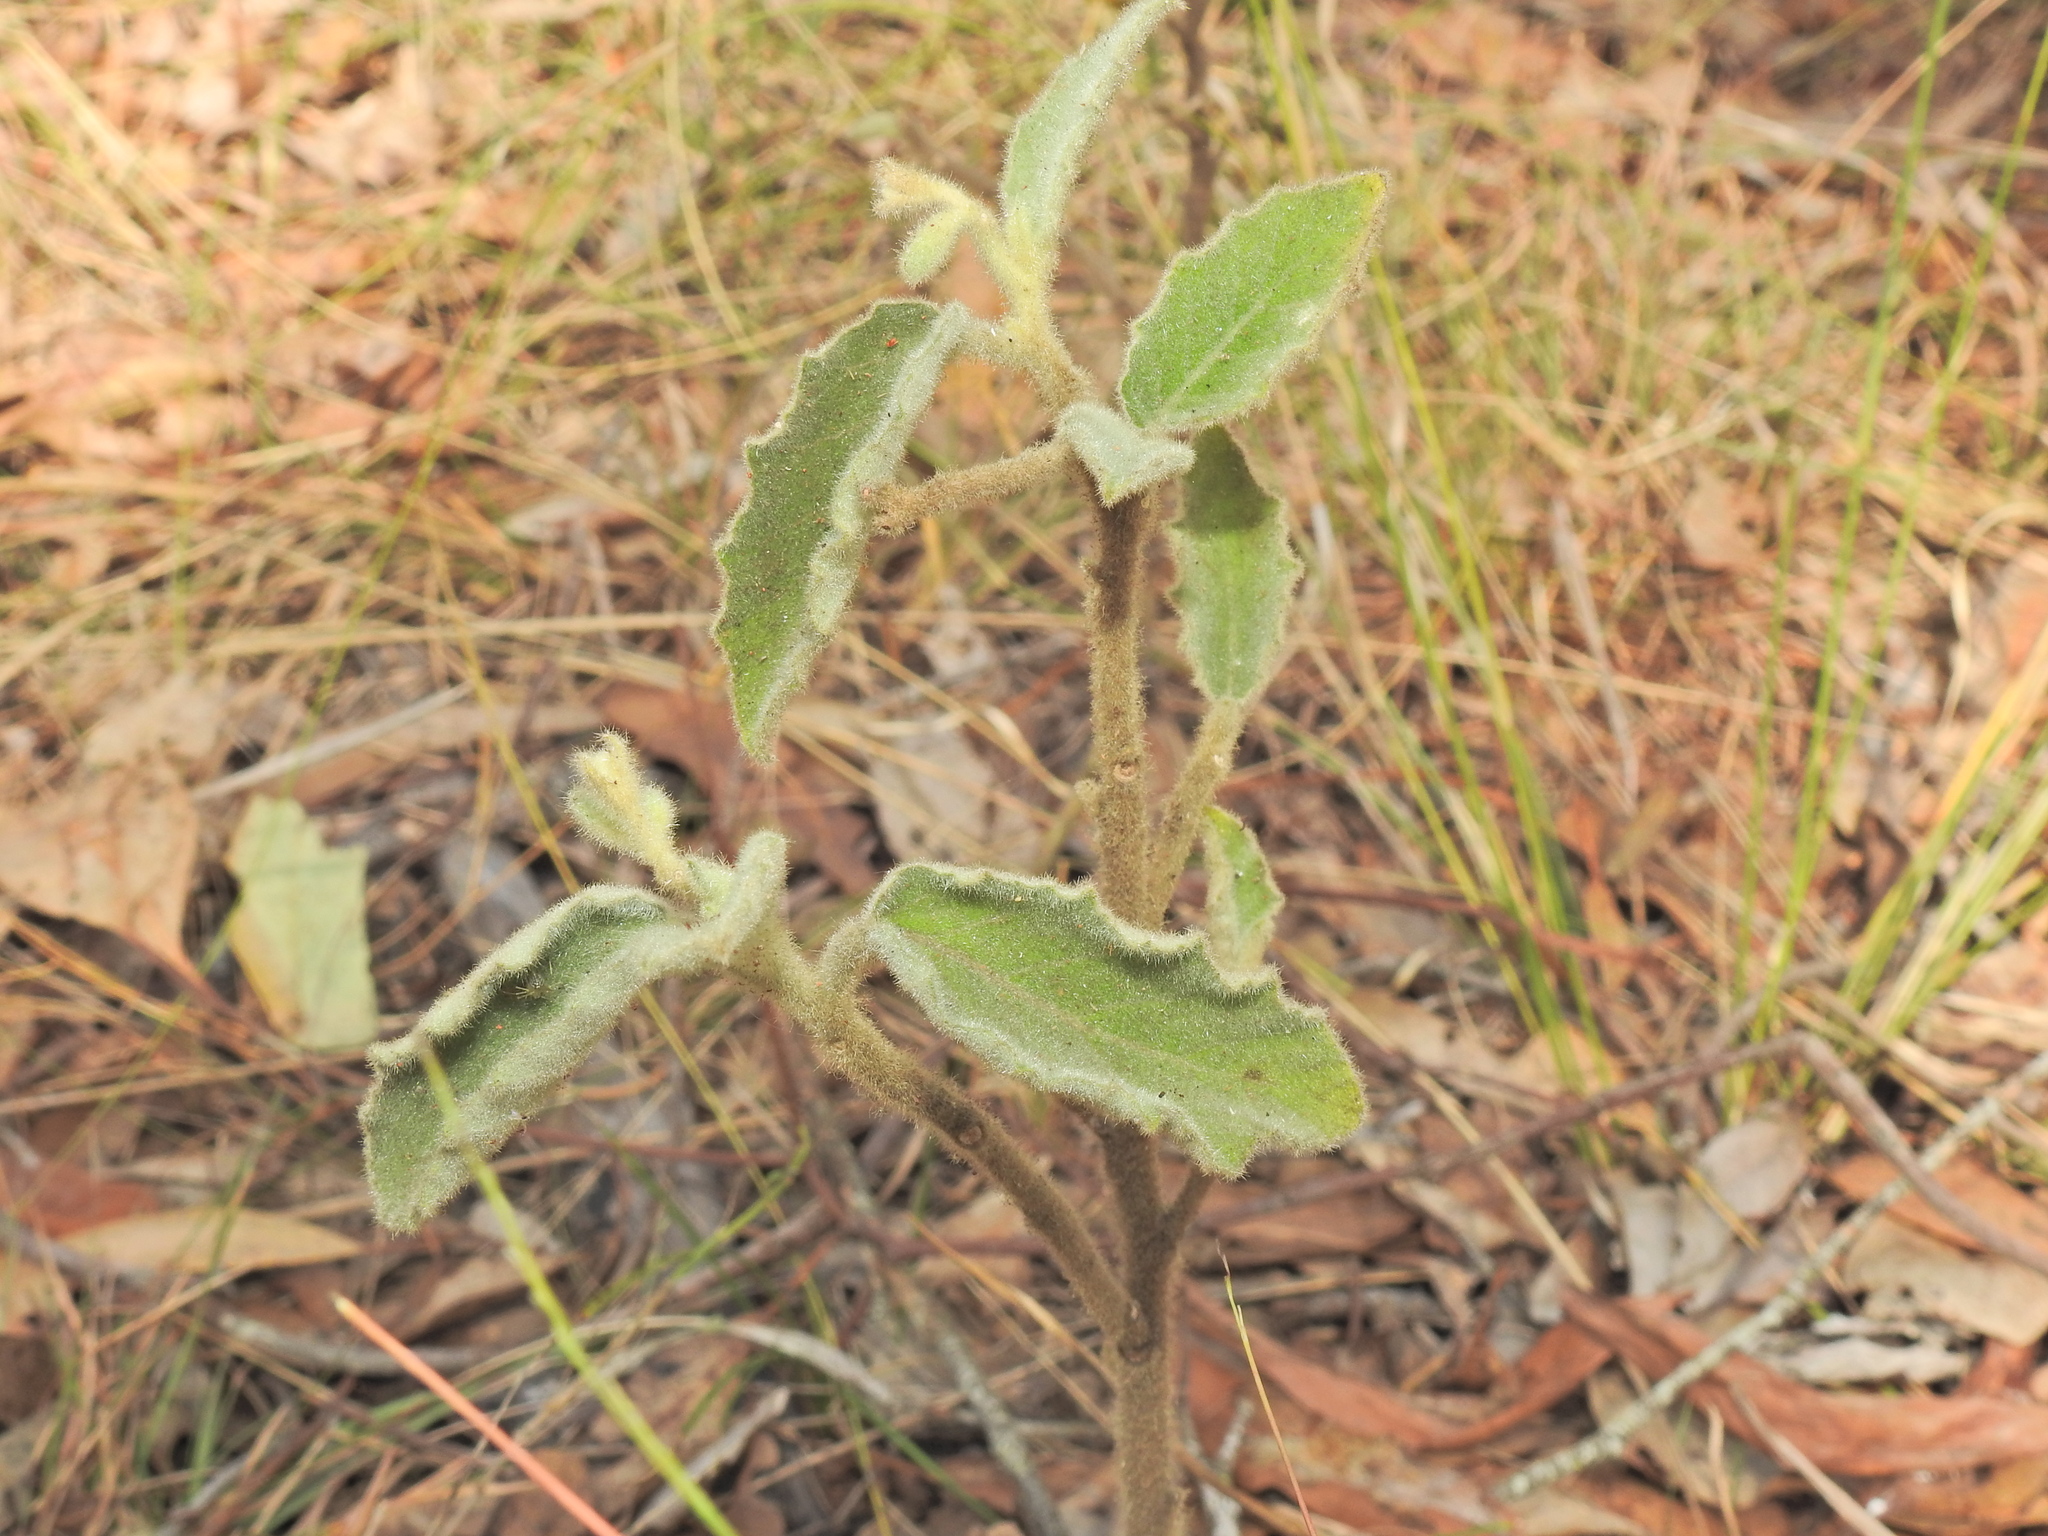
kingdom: Plantae
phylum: Tracheophyta
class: Magnoliopsida
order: Solanales
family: Solanaceae
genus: Solanum
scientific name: Solanum gympiense
